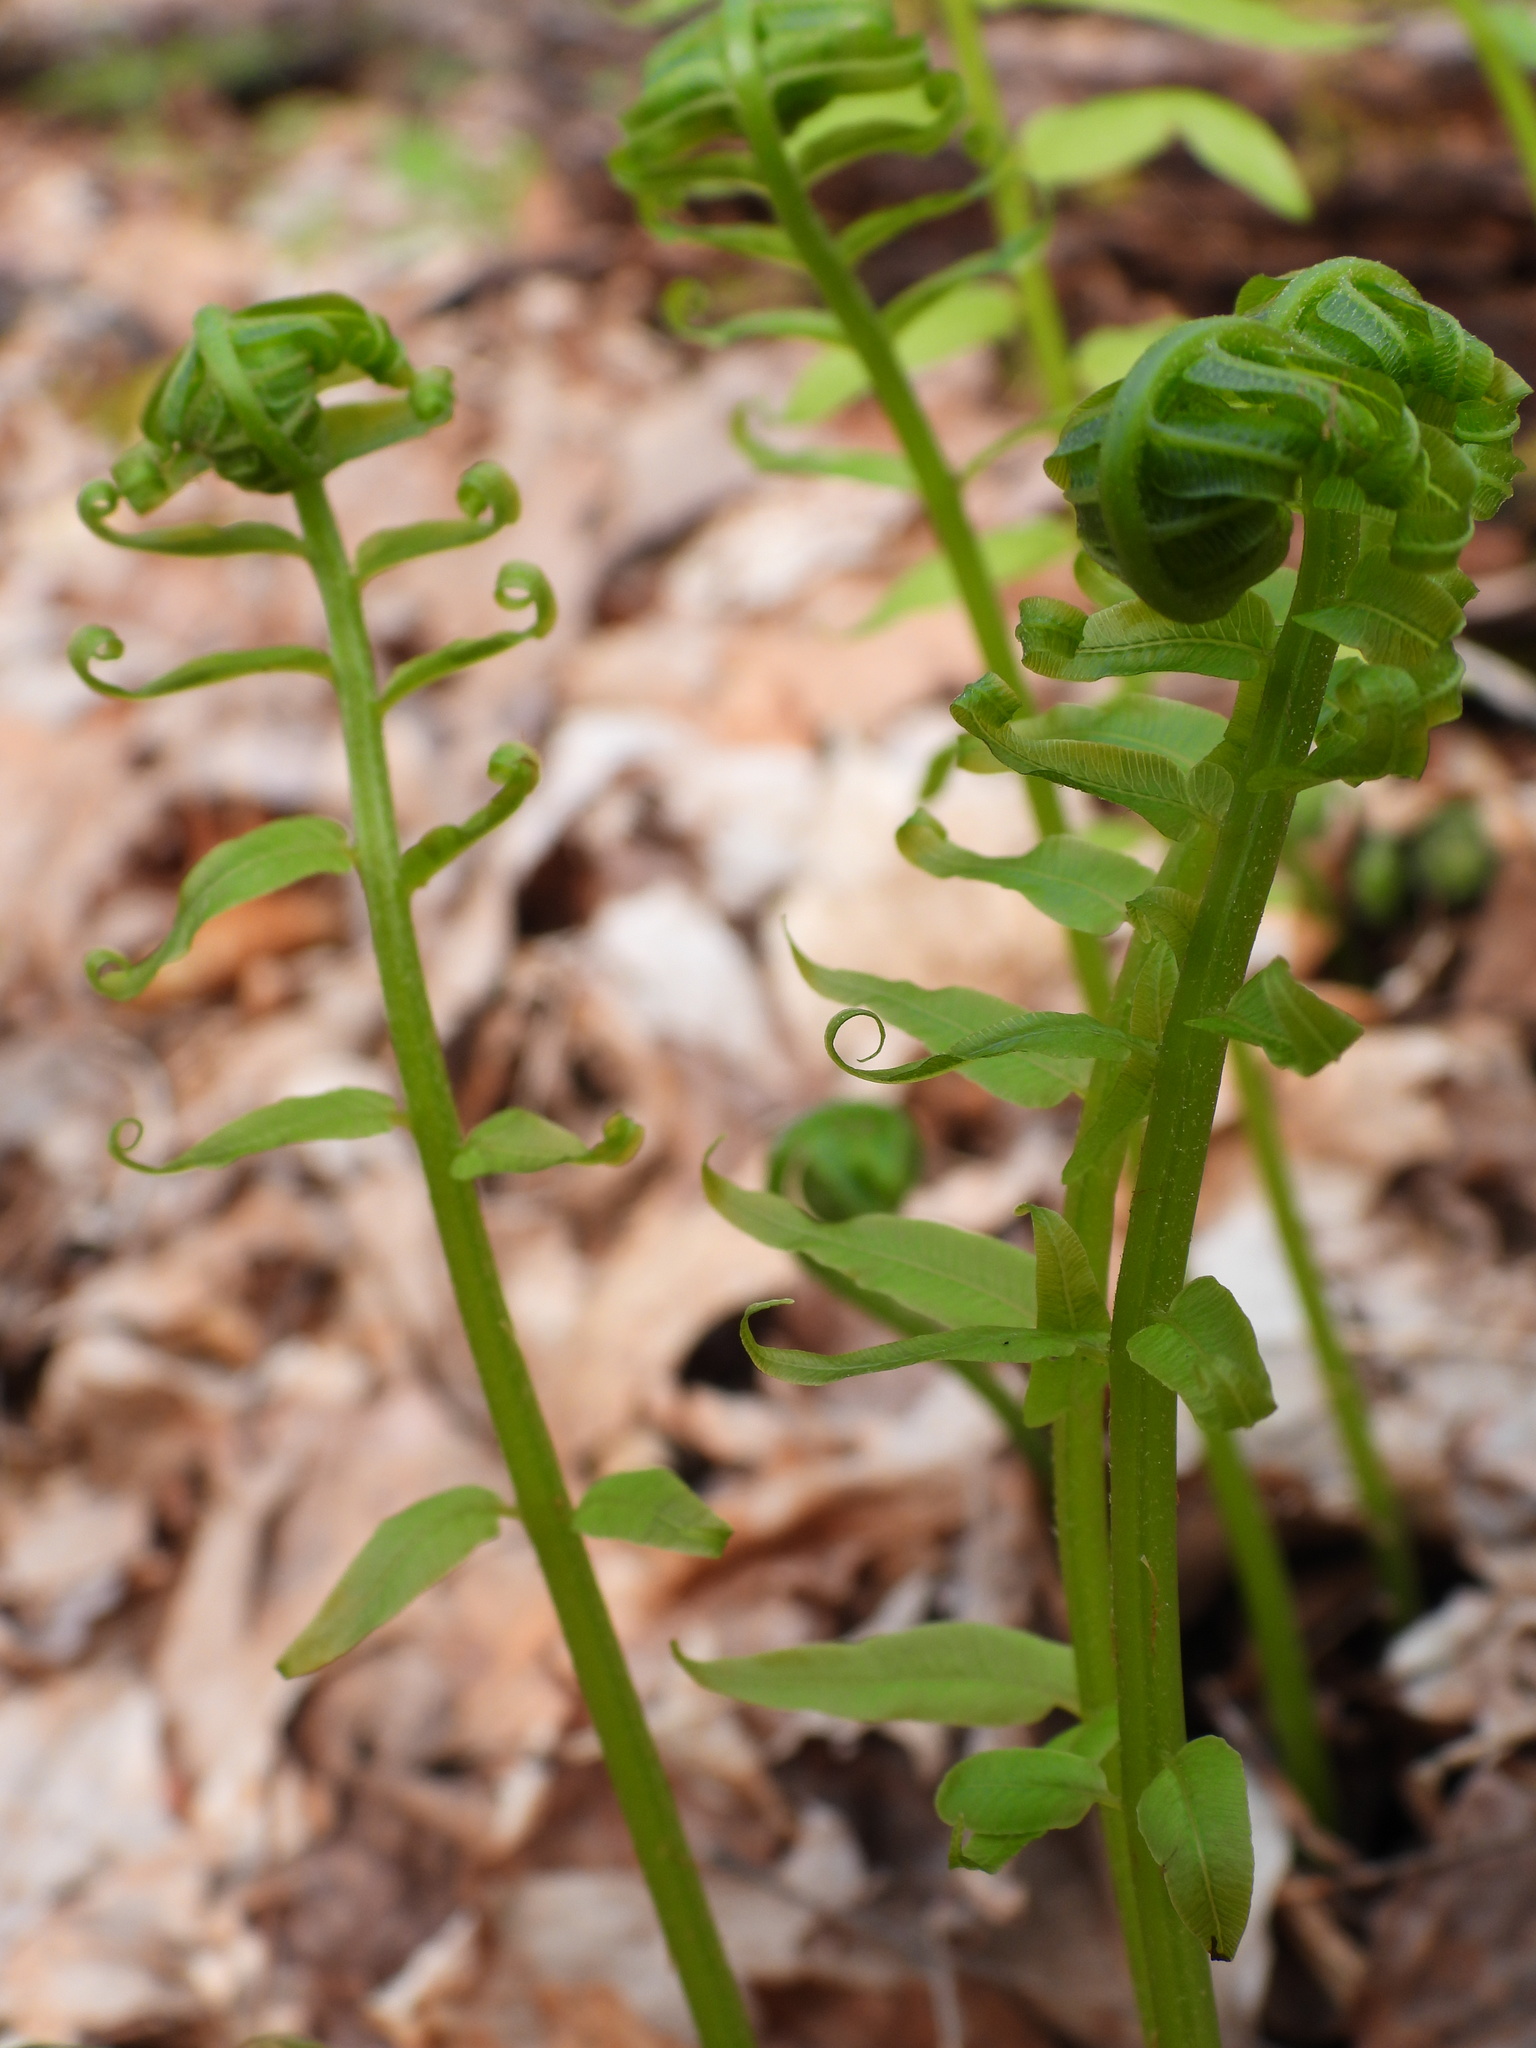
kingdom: Plantae
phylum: Tracheophyta
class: Polypodiopsida
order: Polypodiales
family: Diplaziopsidaceae
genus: Homalosorus
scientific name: Homalosorus pycnocarpos
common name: Glade fern
